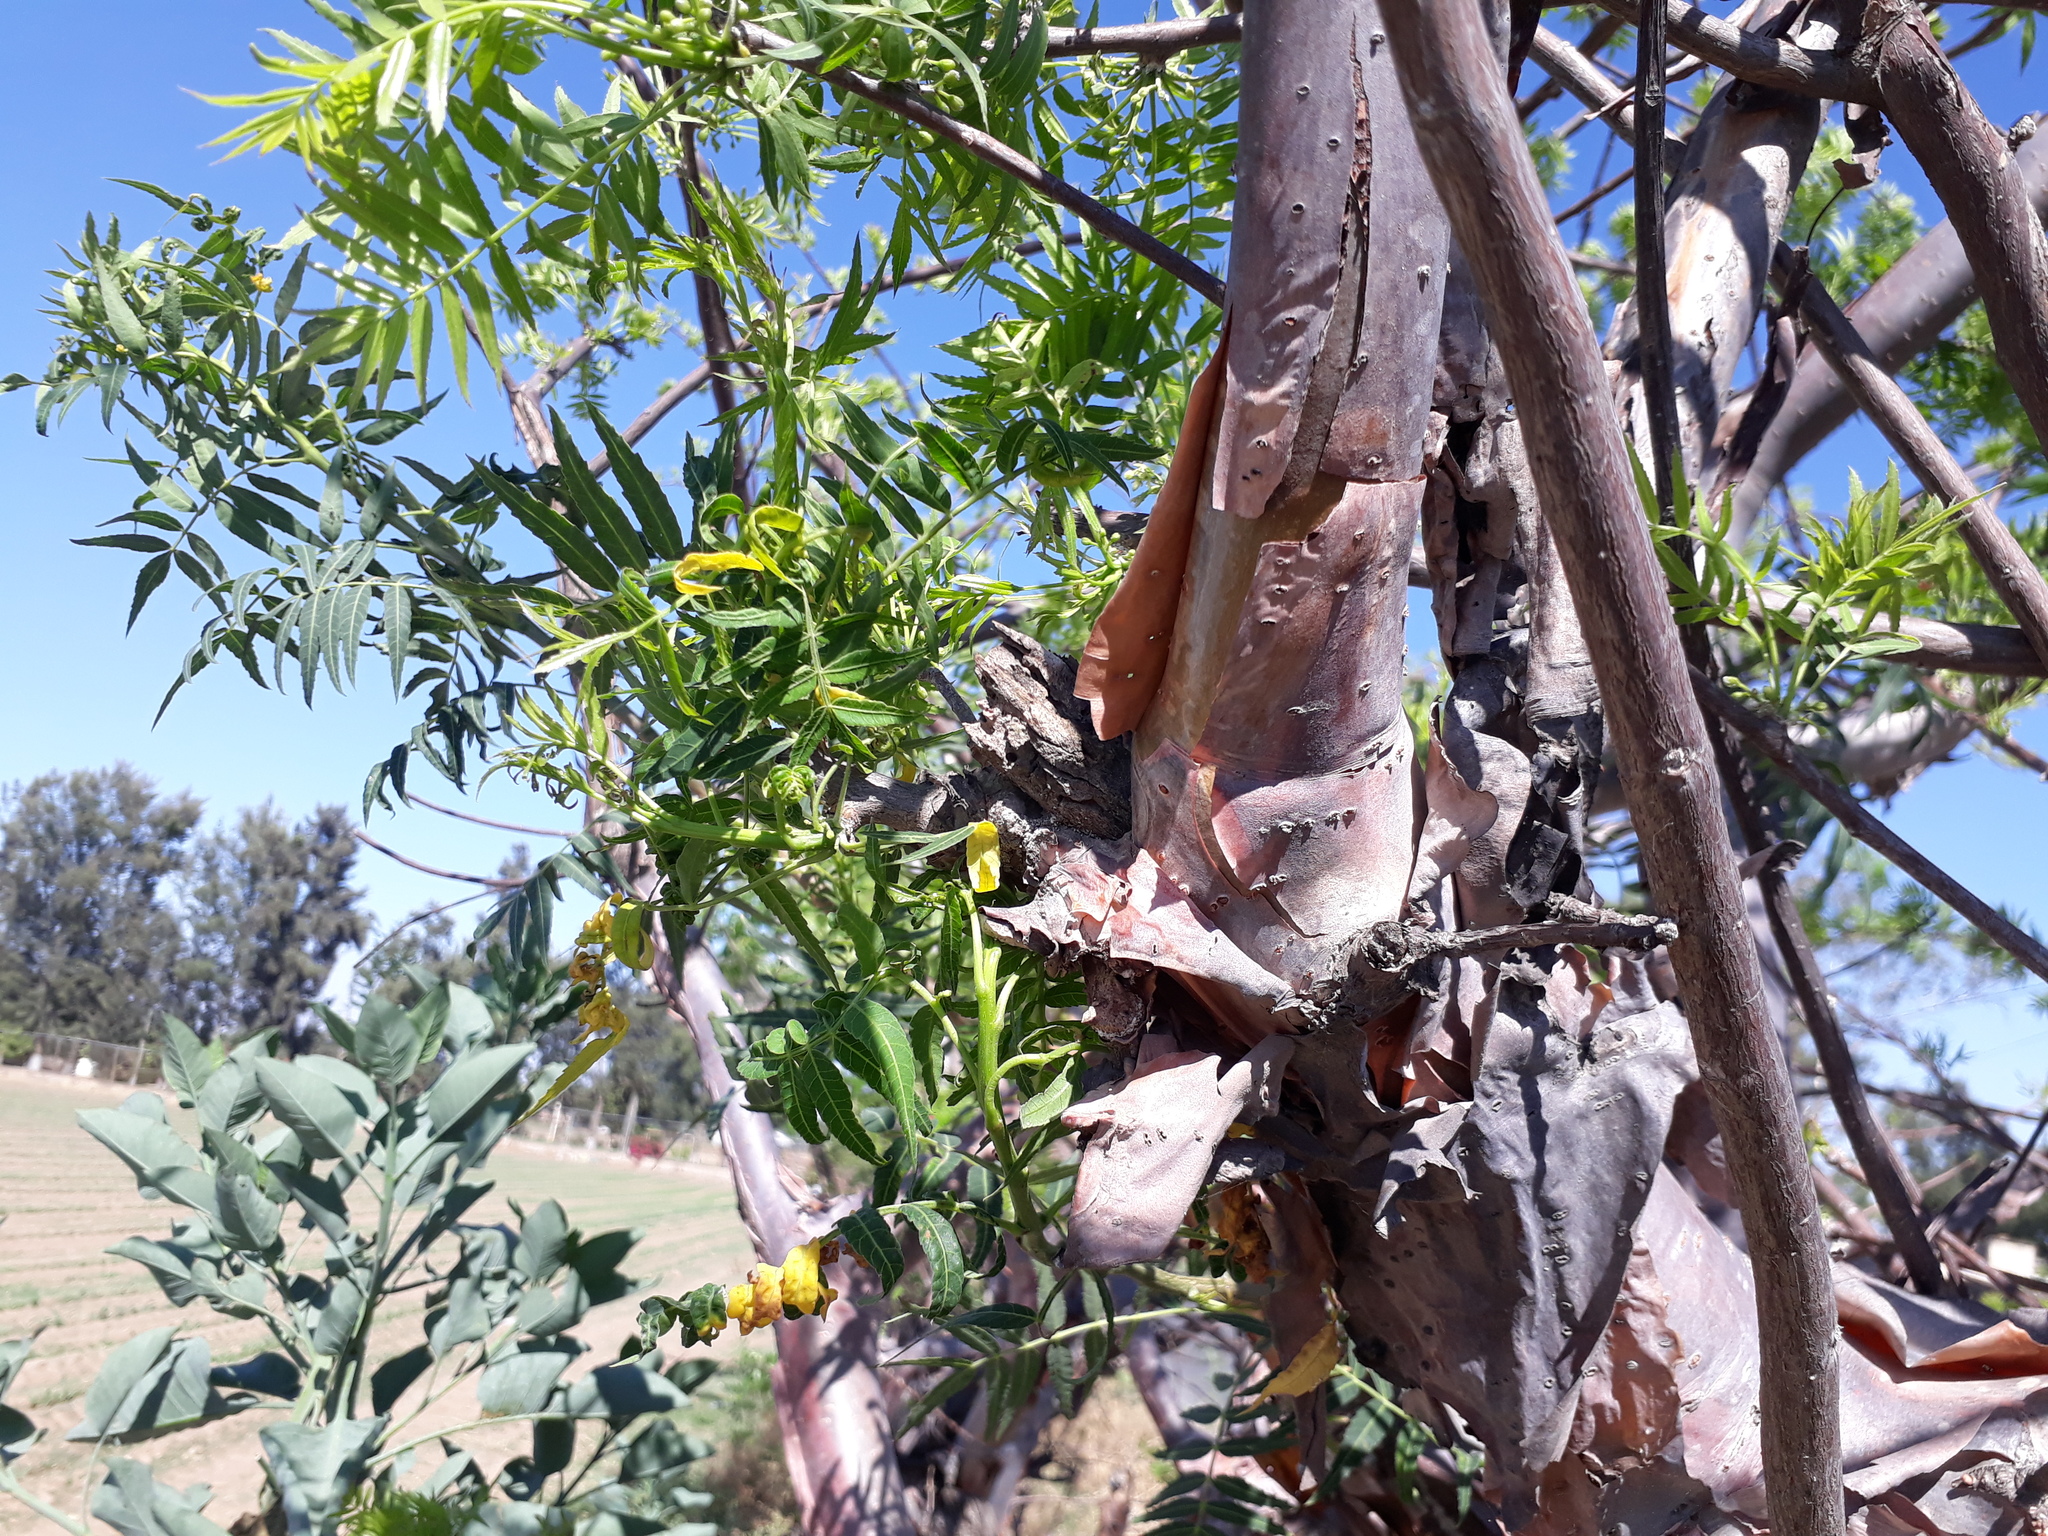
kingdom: Plantae
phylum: Tracheophyta
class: Magnoliopsida
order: Sapindales
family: Burseraceae
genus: Bursera
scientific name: Bursera multijuga
